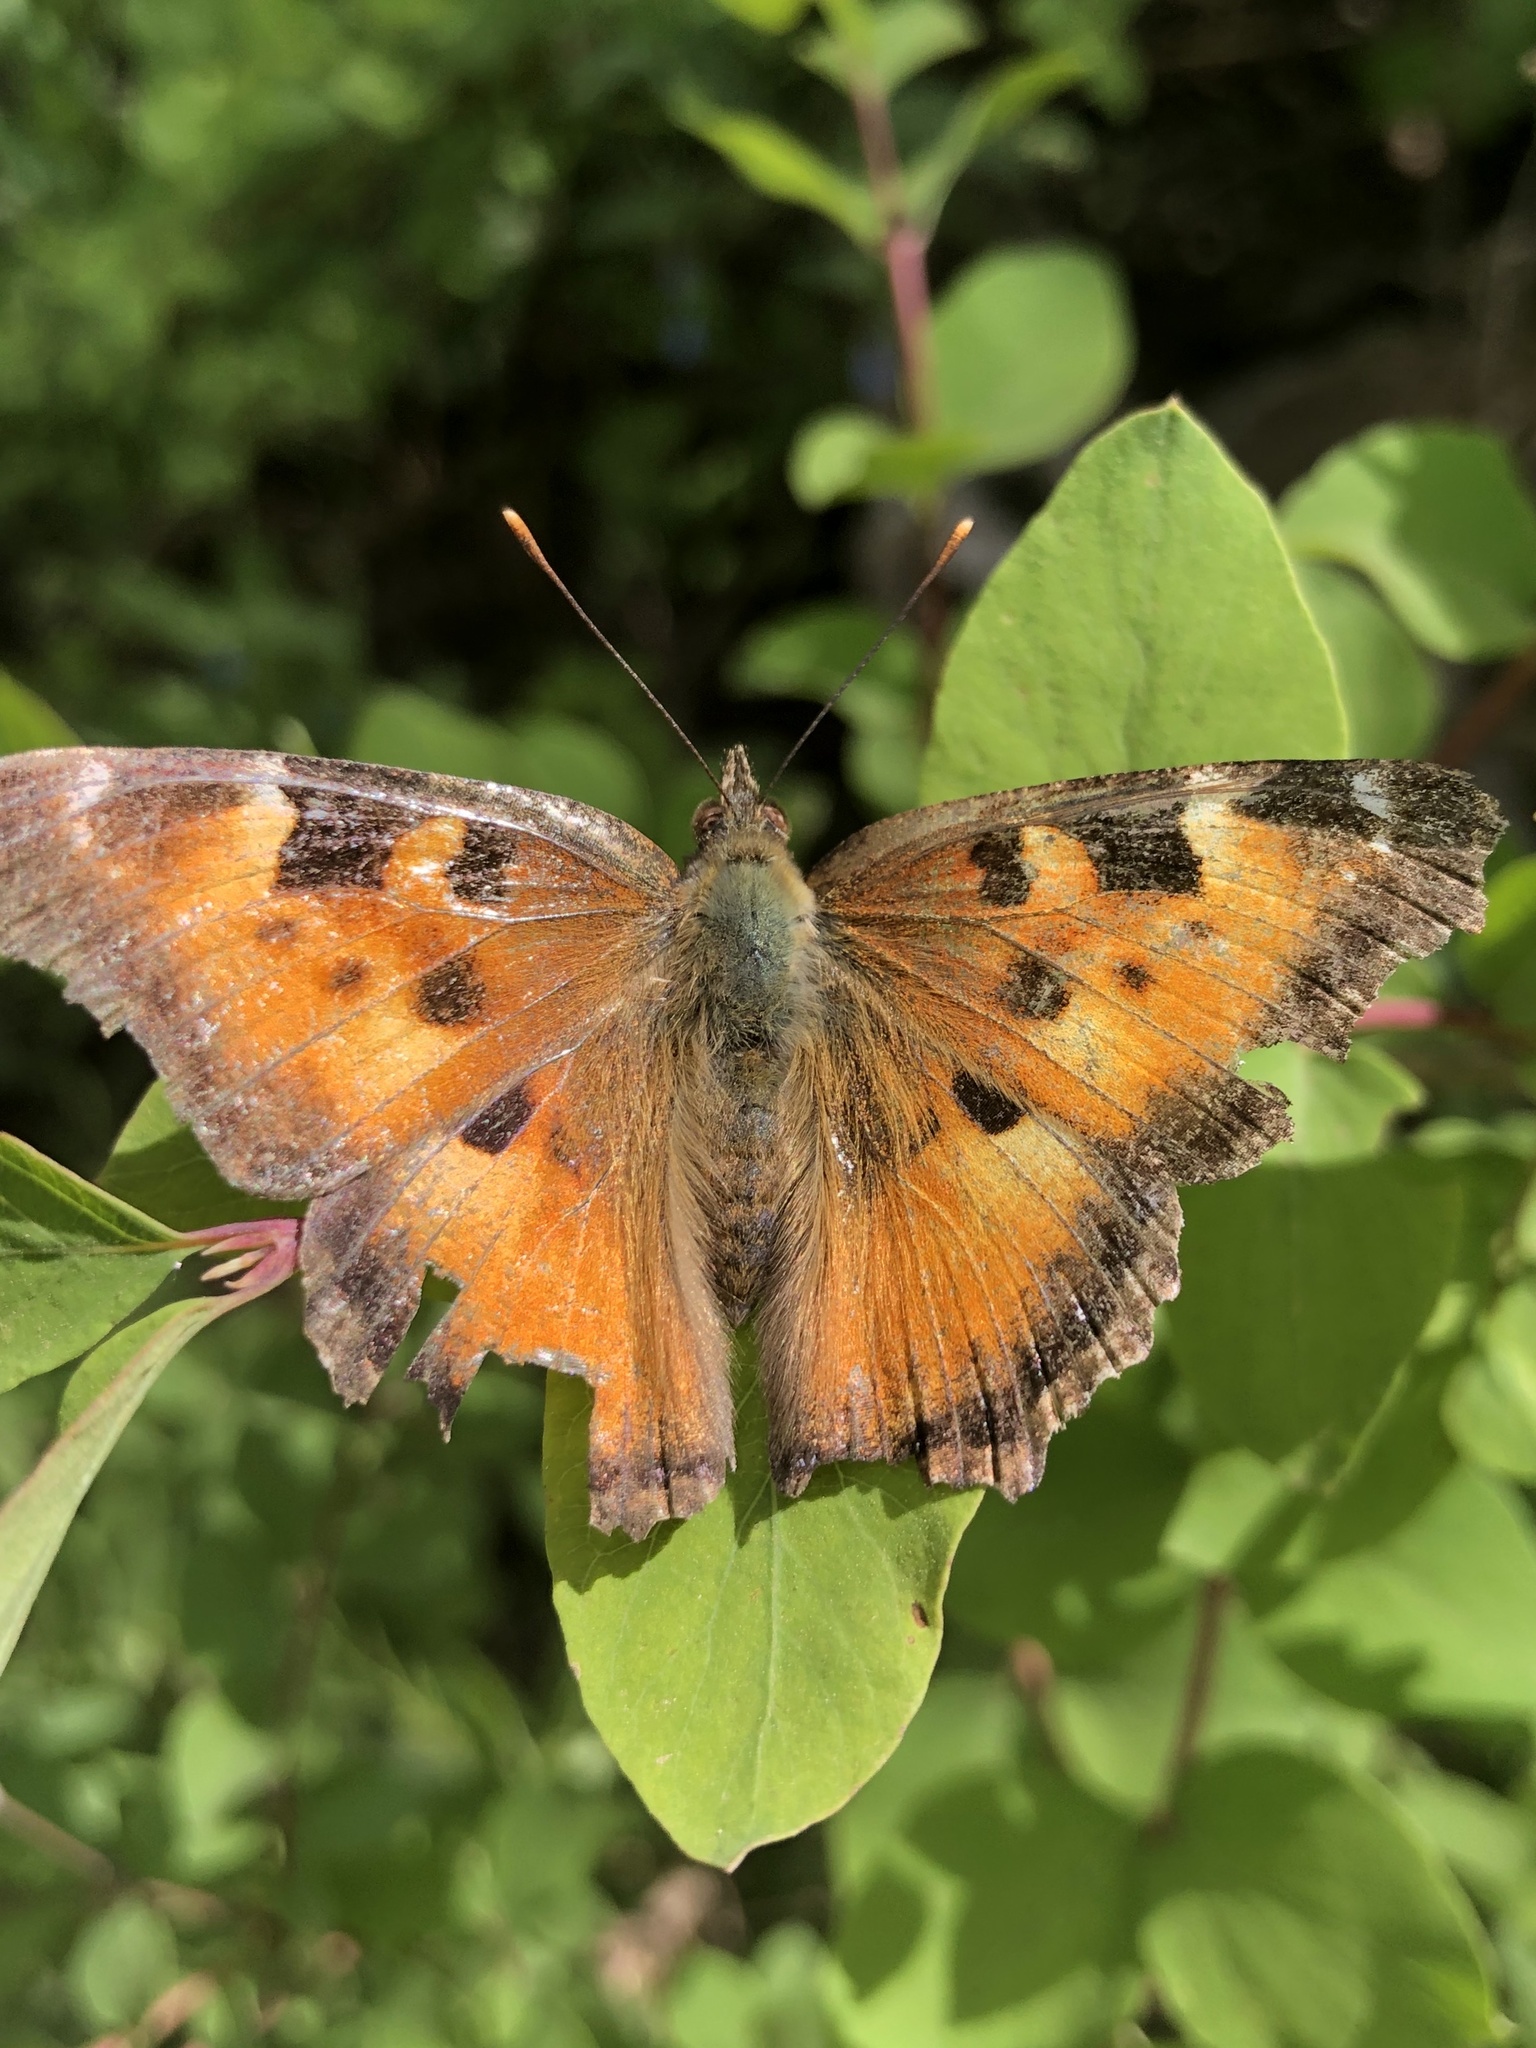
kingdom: Animalia
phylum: Arthropoda
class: Insecta
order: Lepidoptera
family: Nymphalidae
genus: Nymphalis
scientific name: Nymphalis californica
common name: California tortoiseshell
